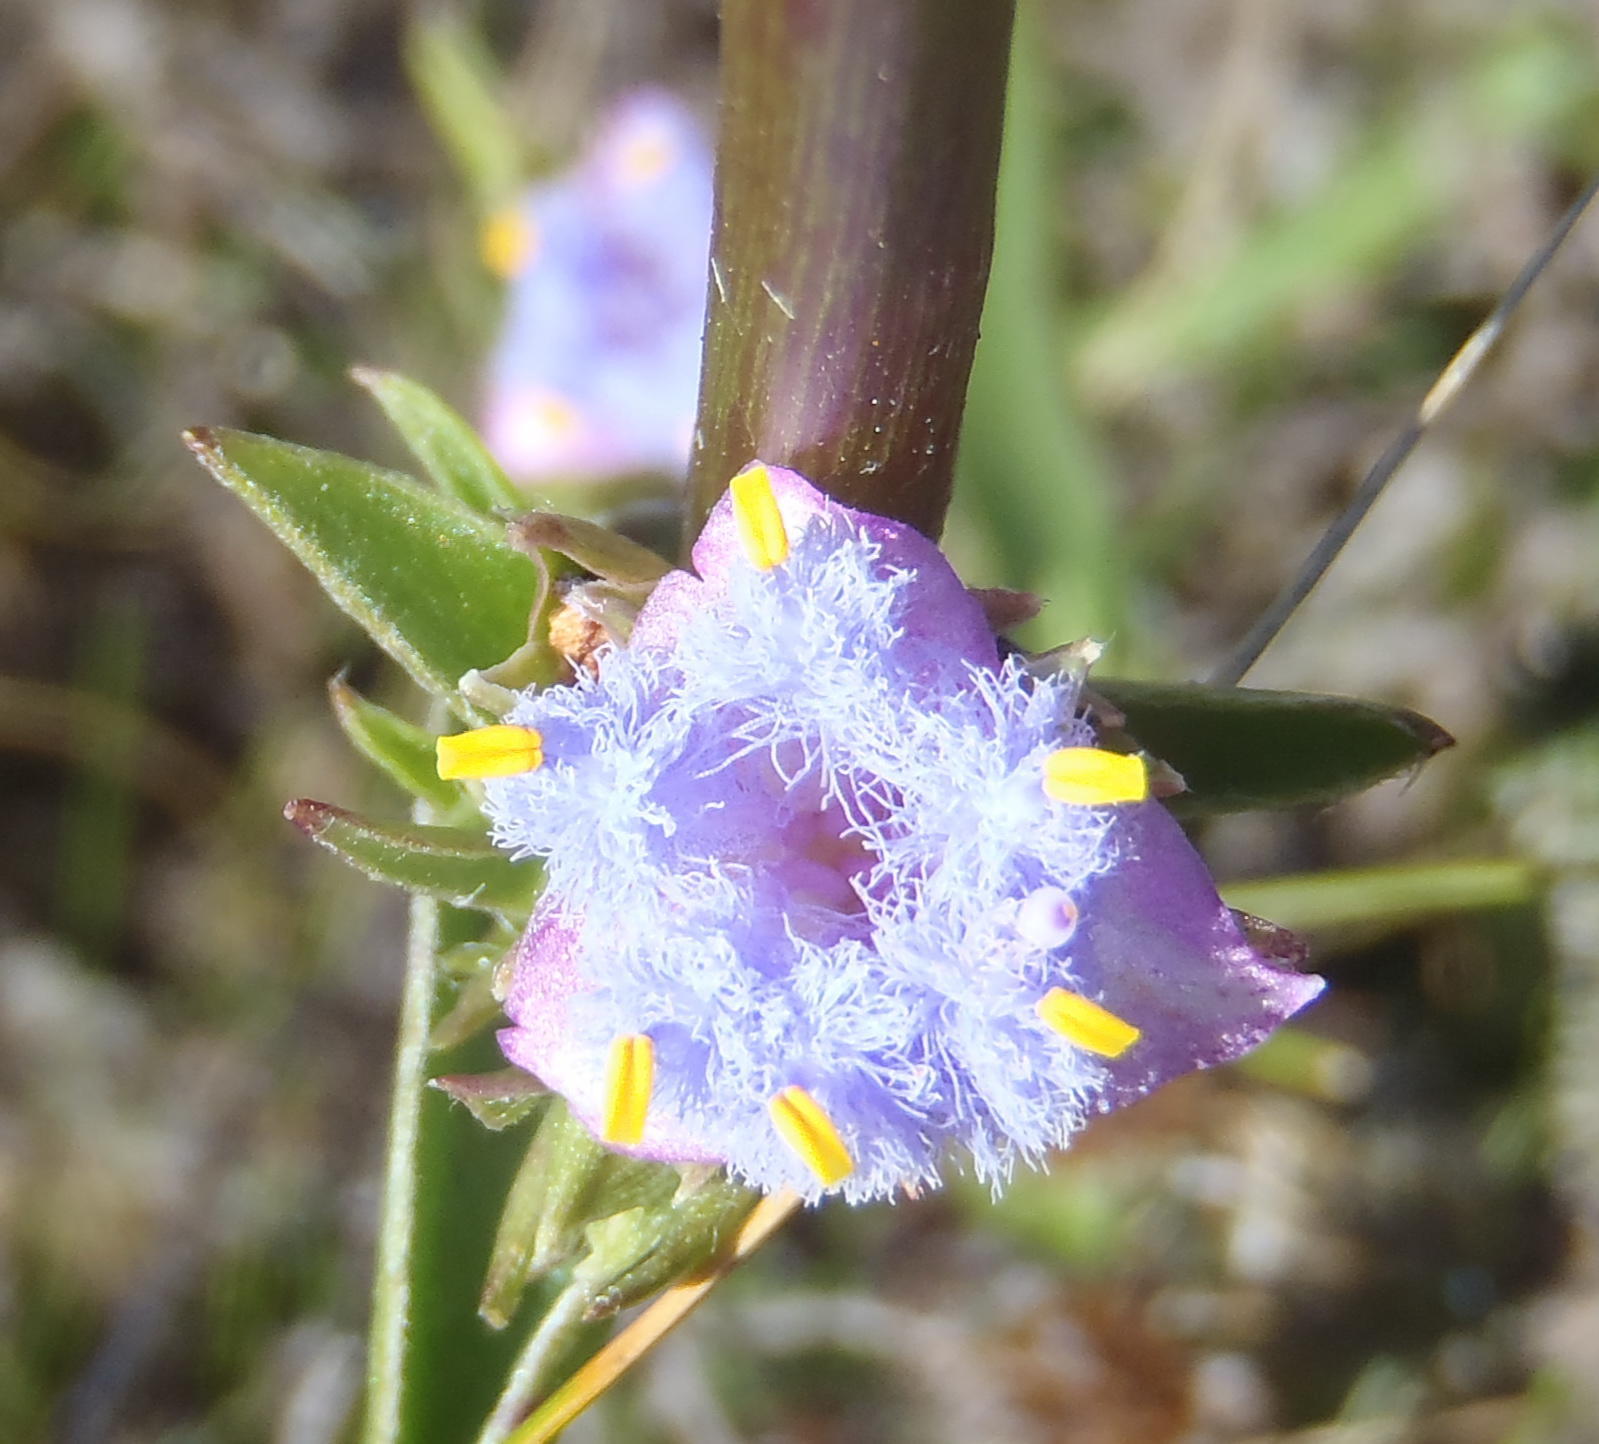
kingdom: Plantae
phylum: Tracheophyta
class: Liliopsida
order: Commelinales
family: Commelinaceae
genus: Cyanotis
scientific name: Cyanotis speciosa
